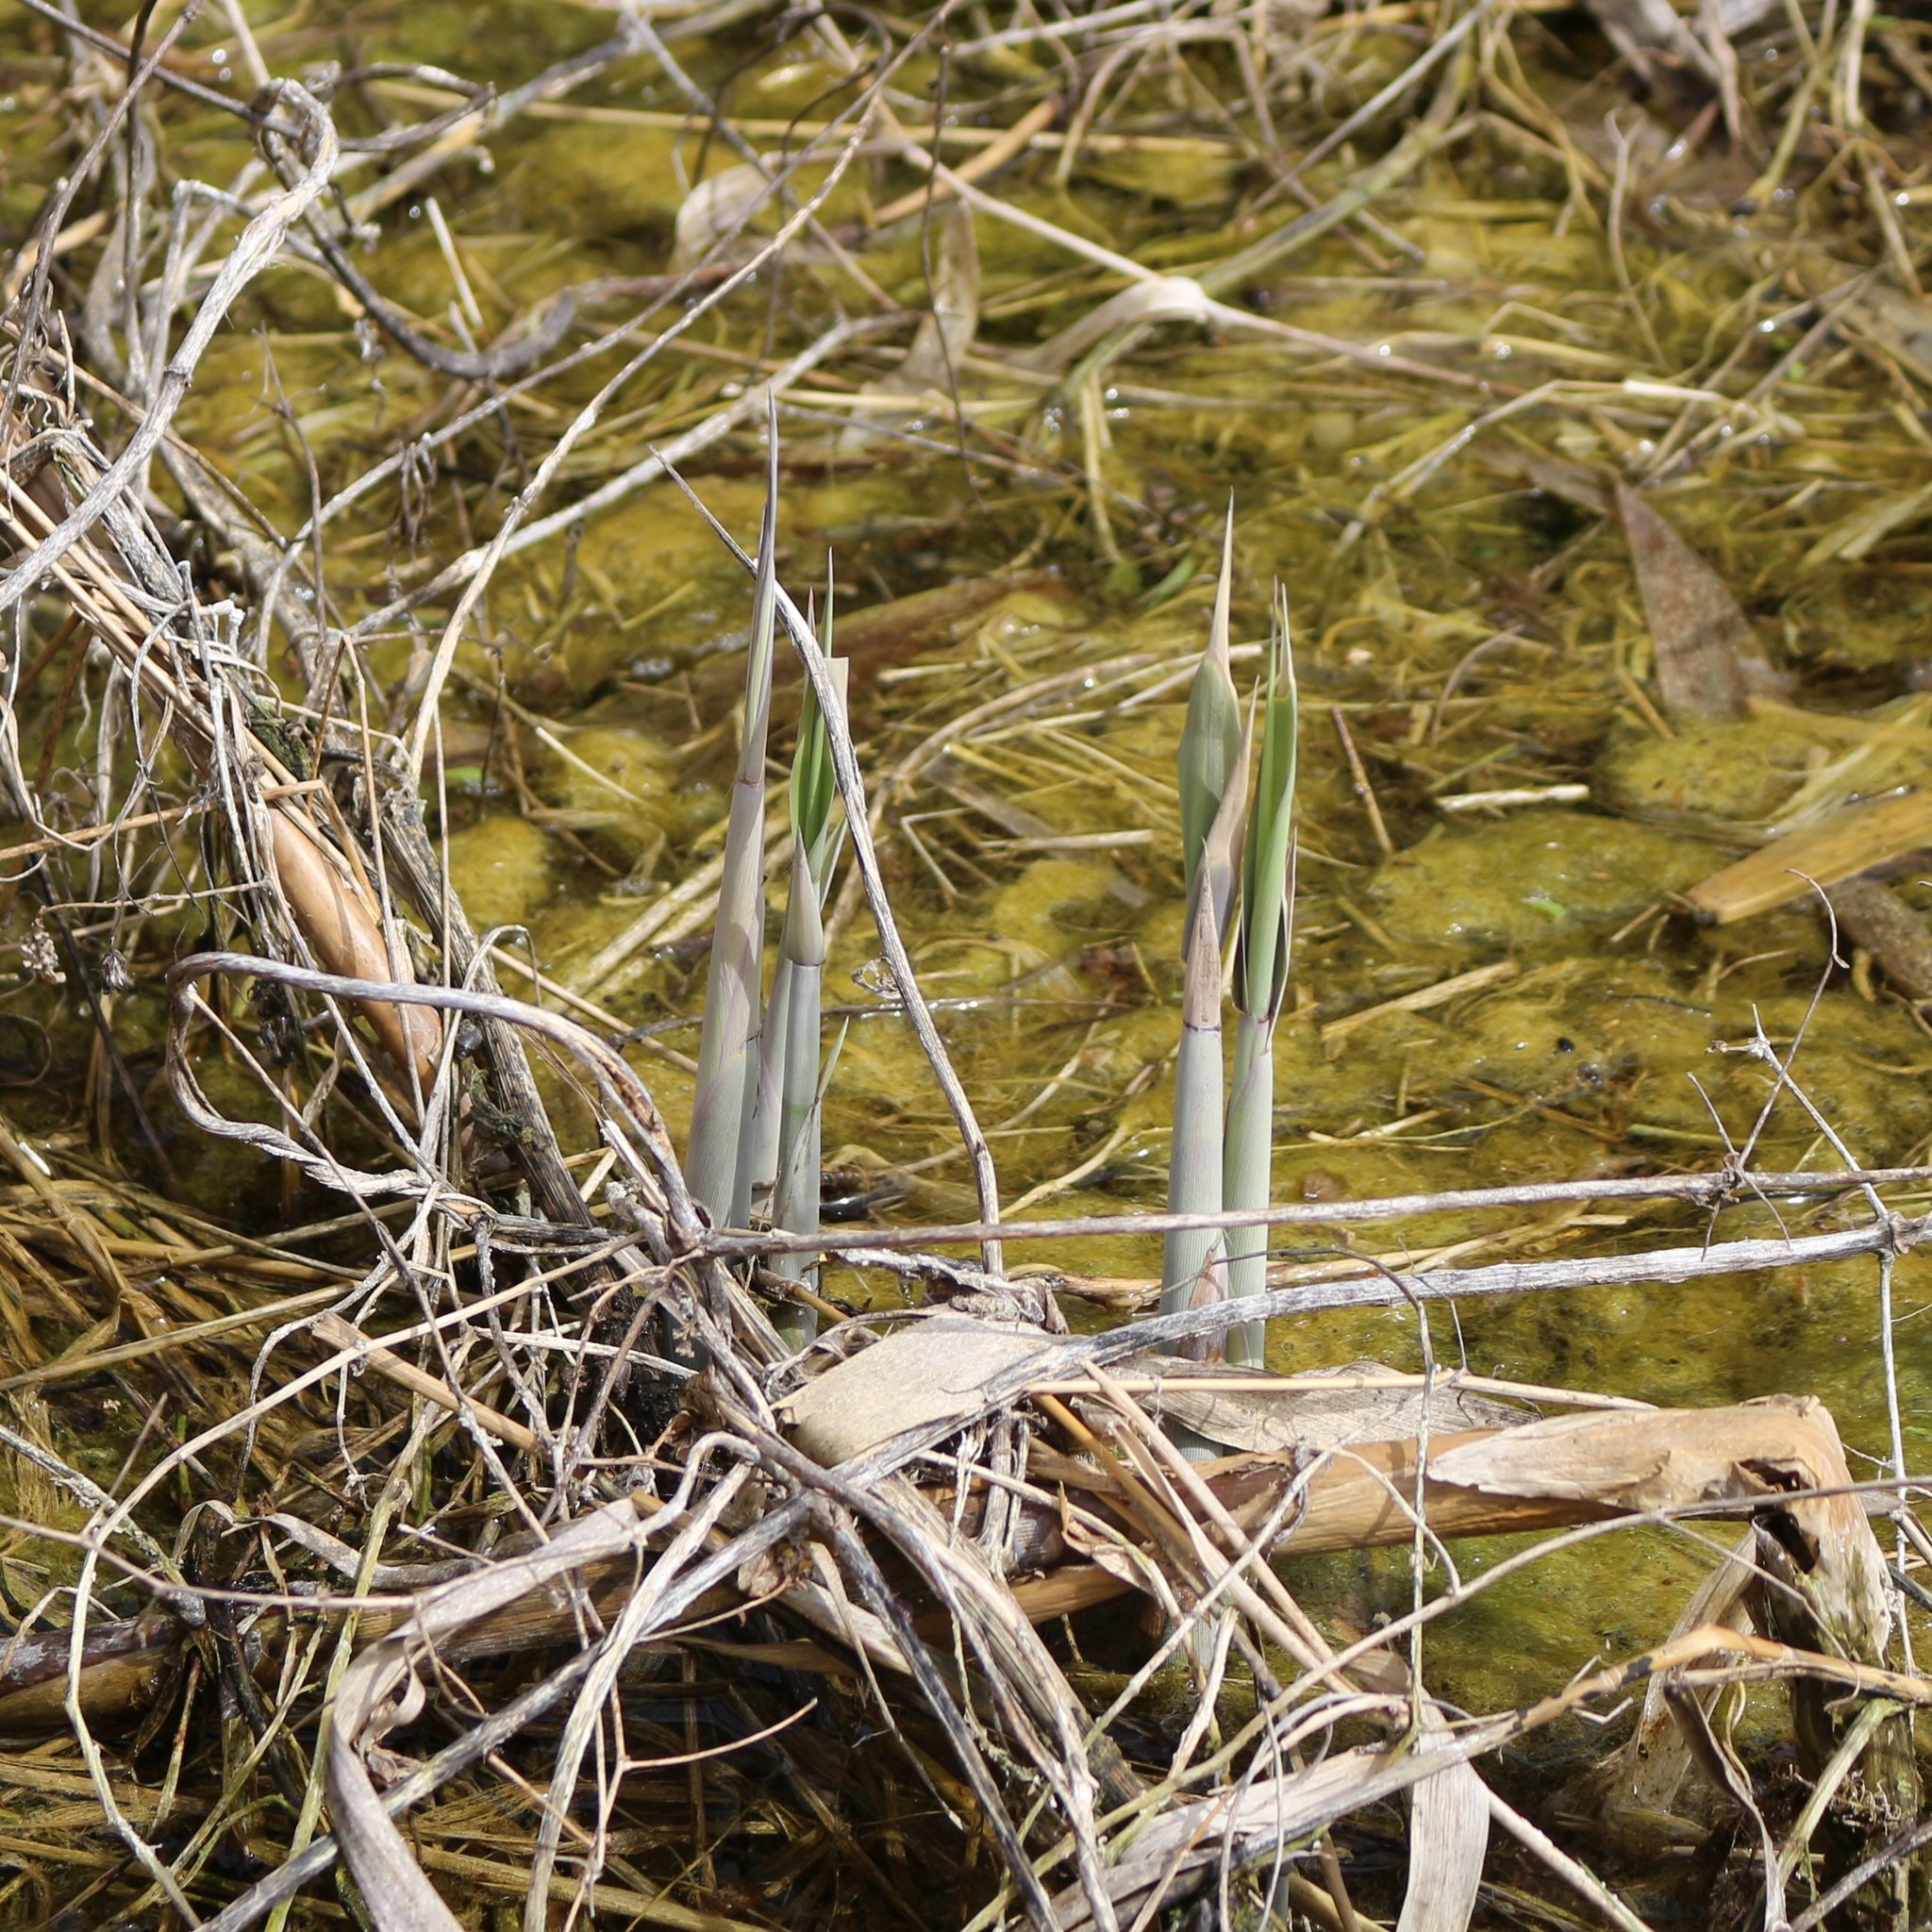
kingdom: Plantae
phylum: Tracheophyta
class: Liliopsida
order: Poales
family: Poaceae
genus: Phragmites
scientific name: Phragmites australis
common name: Common reed
